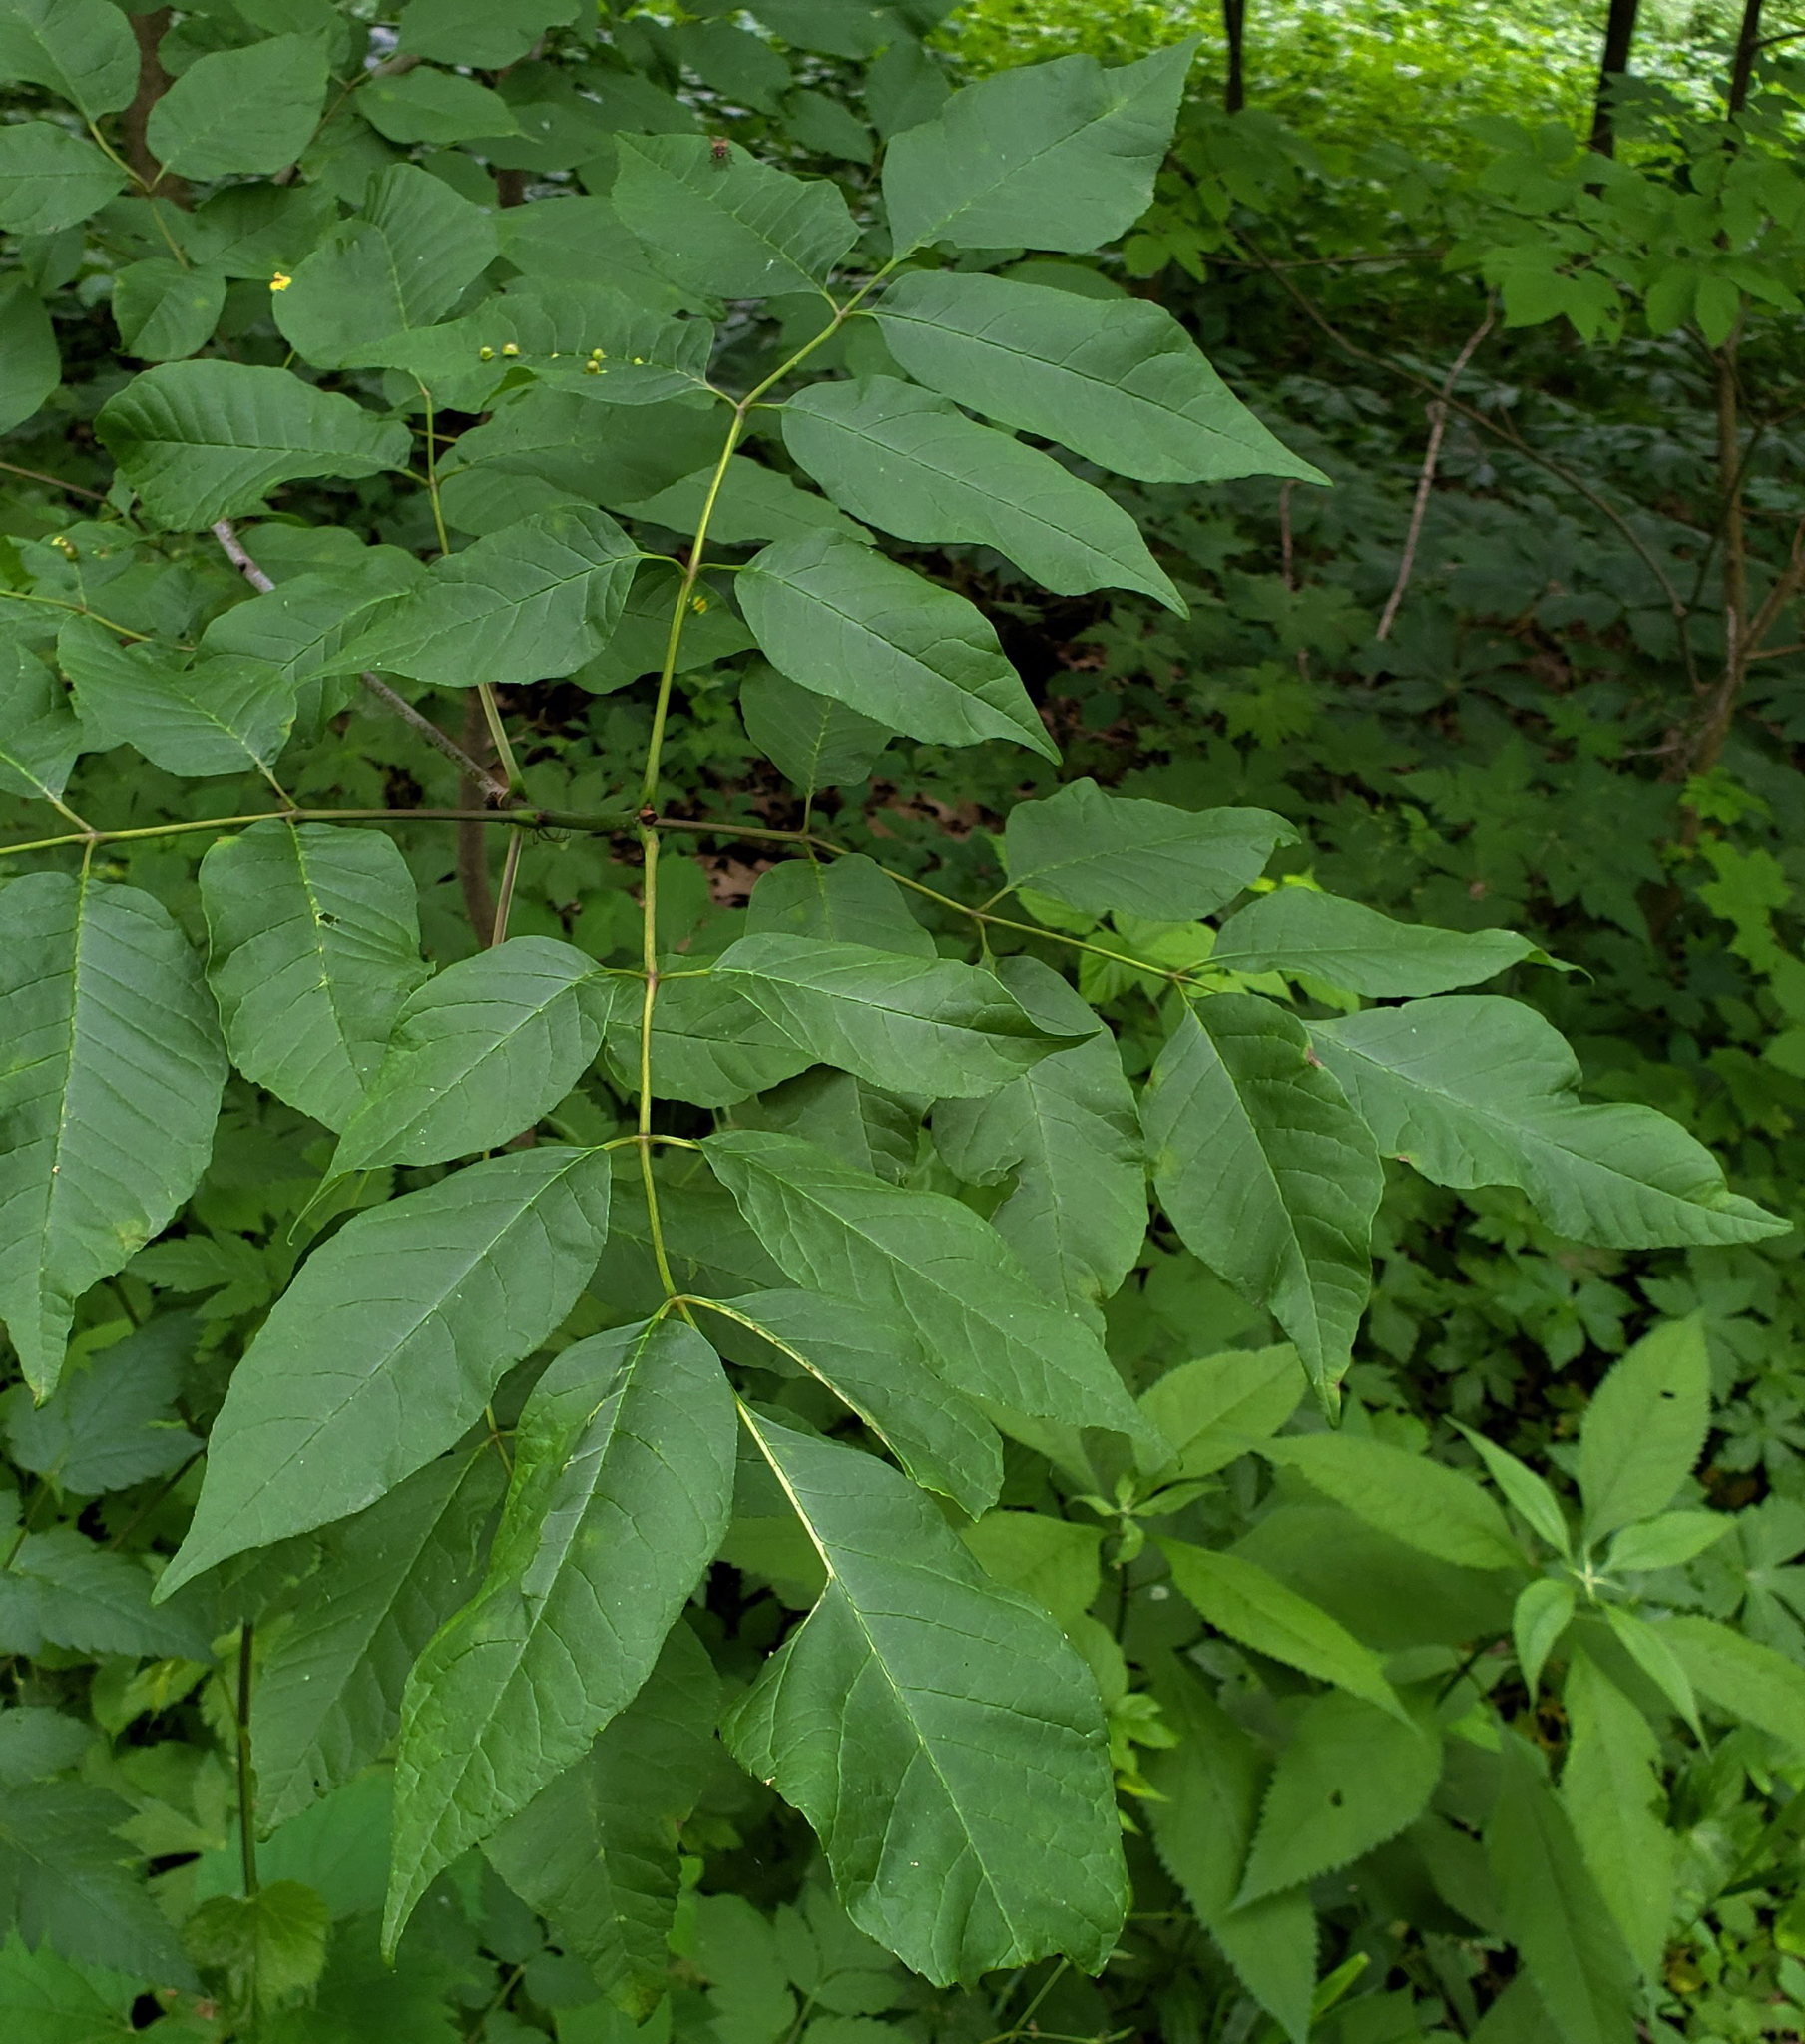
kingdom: Plantae
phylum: Tracheophyta
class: Magnoliopsida
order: Lamiales
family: Oleaceae
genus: Fraxinus
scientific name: Fraxinus americana
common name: White ash
